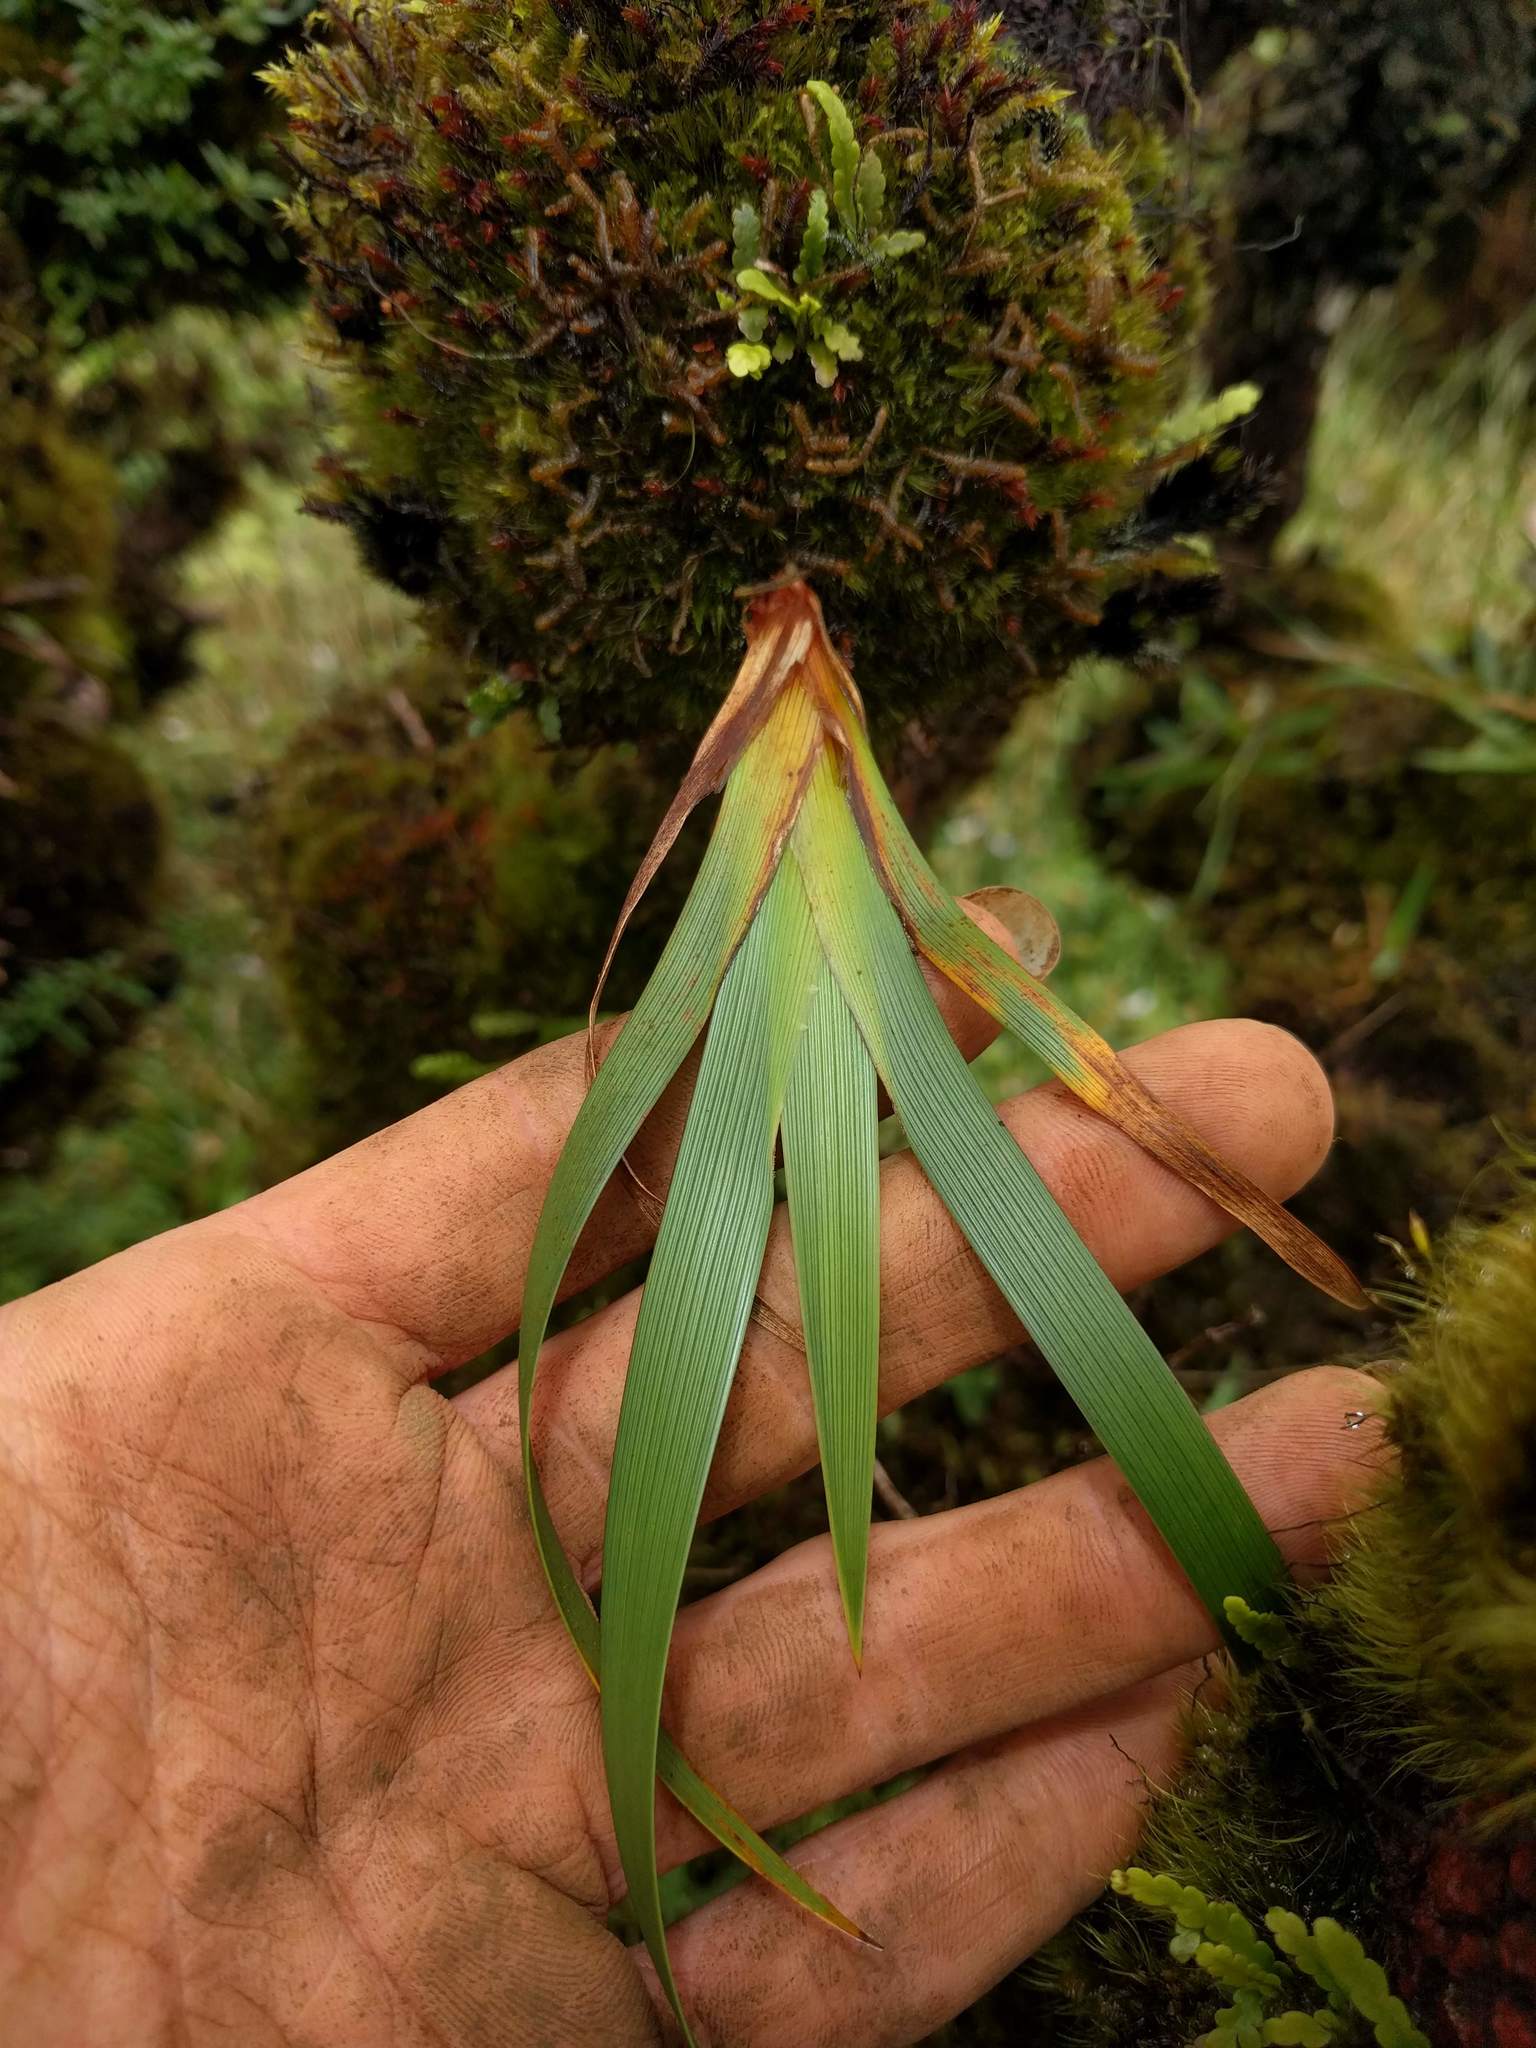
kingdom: Plantae
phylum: Tracheophyta
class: Liliopsida
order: Poales
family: Cyperaceae
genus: Machaerina
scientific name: Machaerina angustifolia
